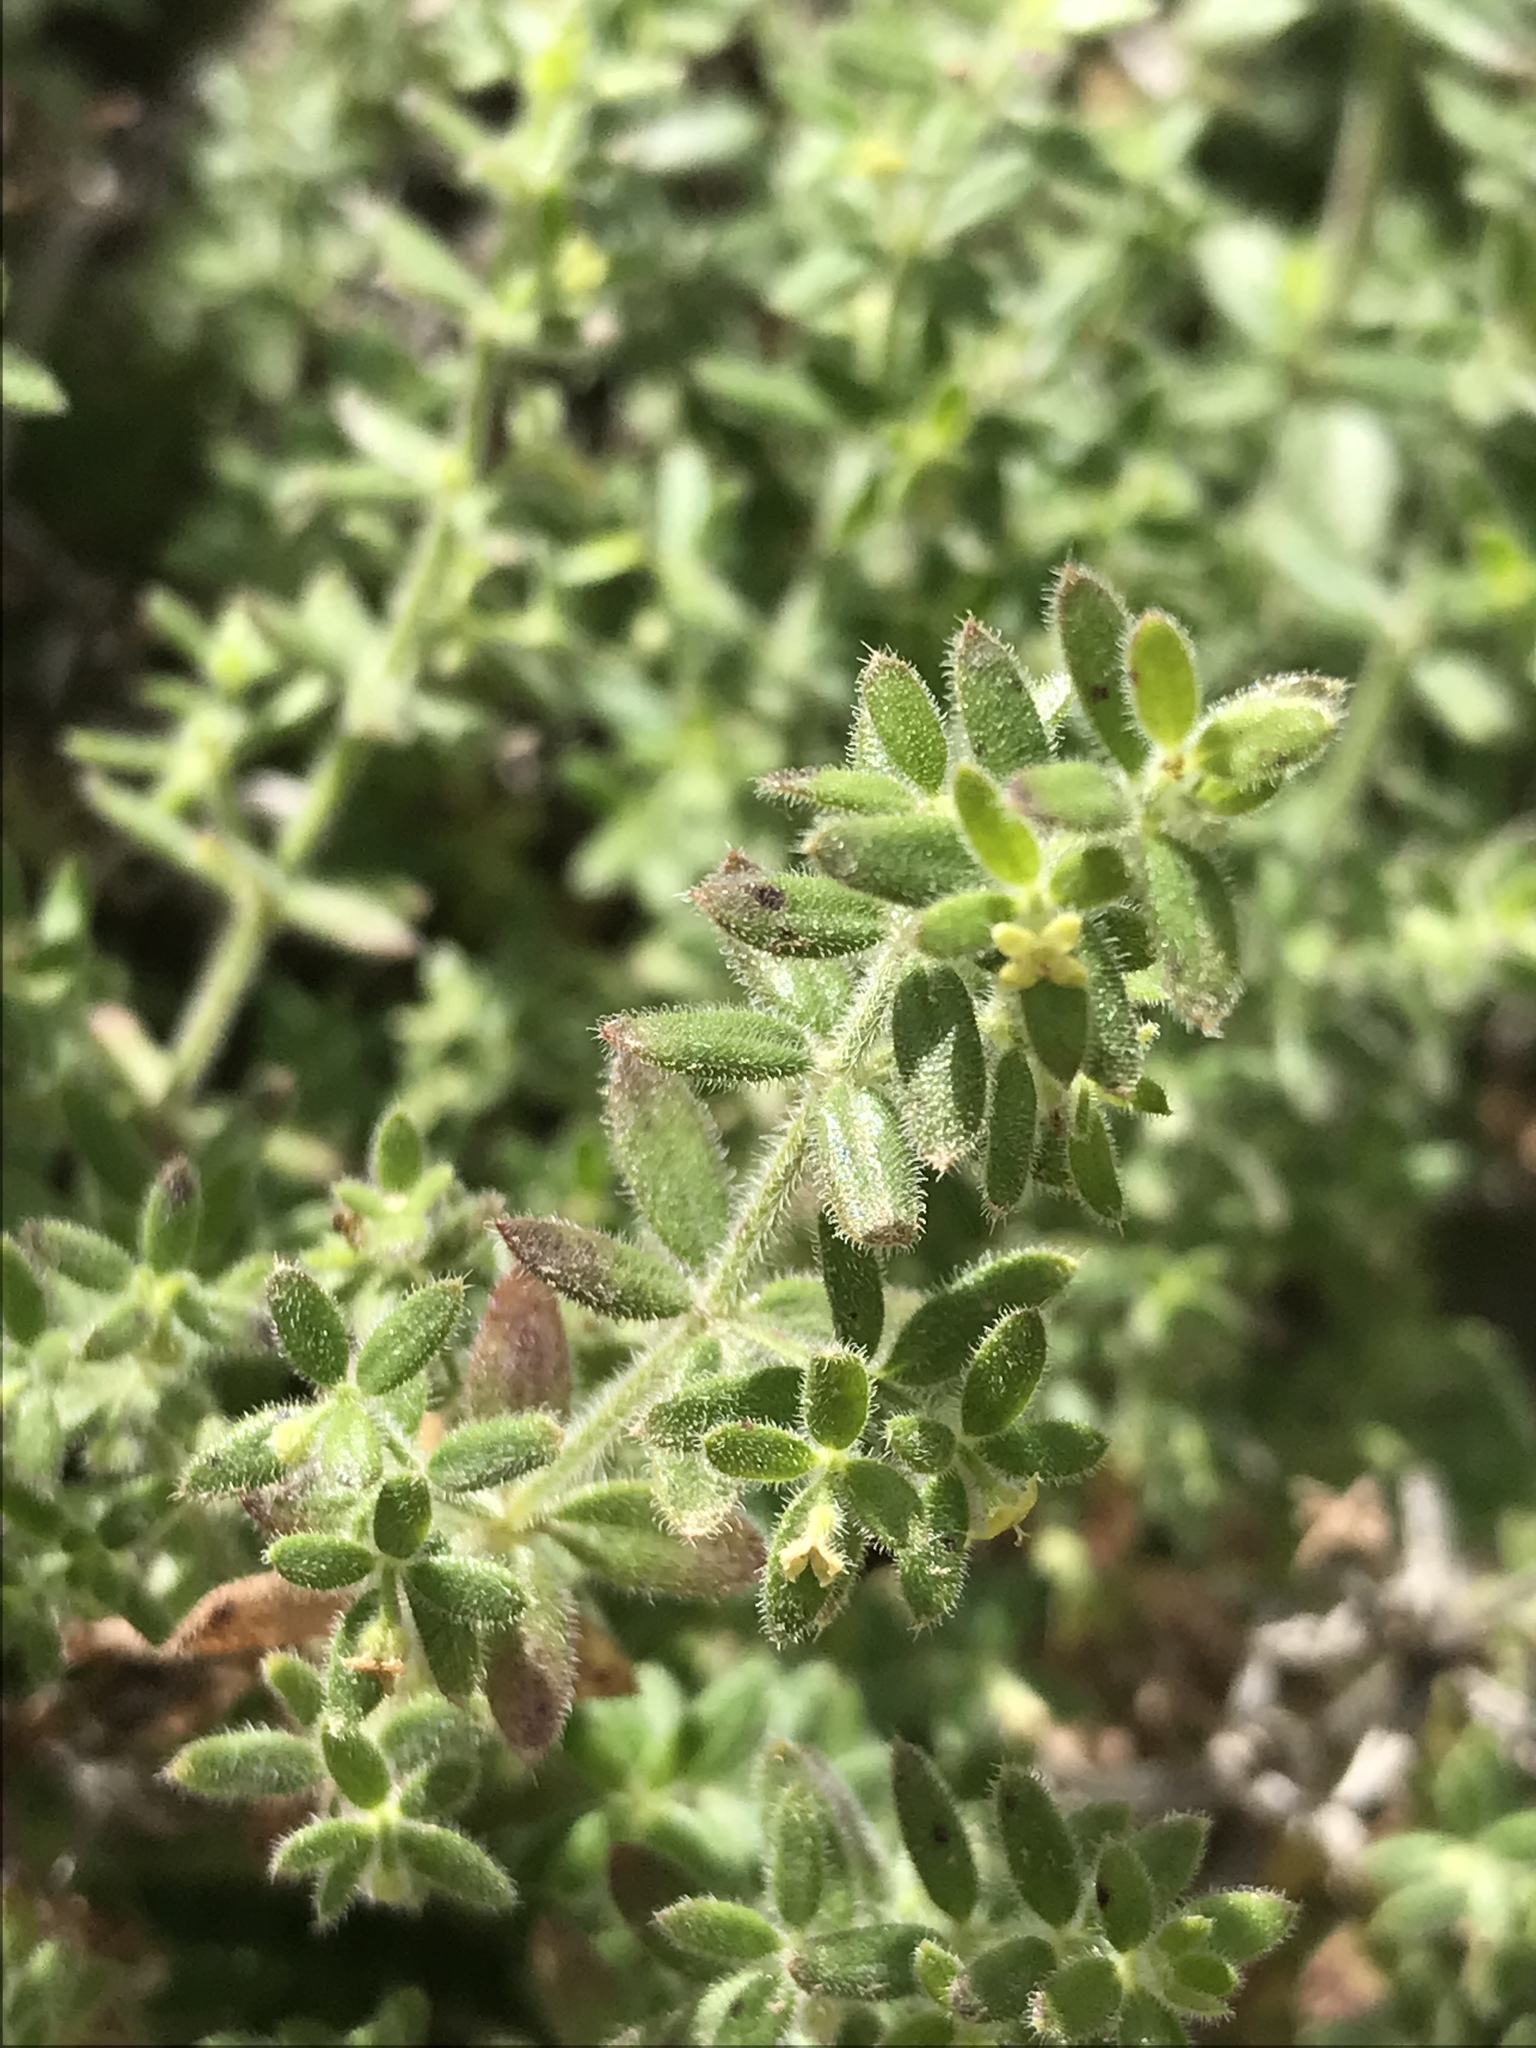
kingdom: Plantae
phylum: Tracheophyta
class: Magnoliopsida
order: Gentianales
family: Rubiaceae
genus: Galium
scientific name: Galium martirense
